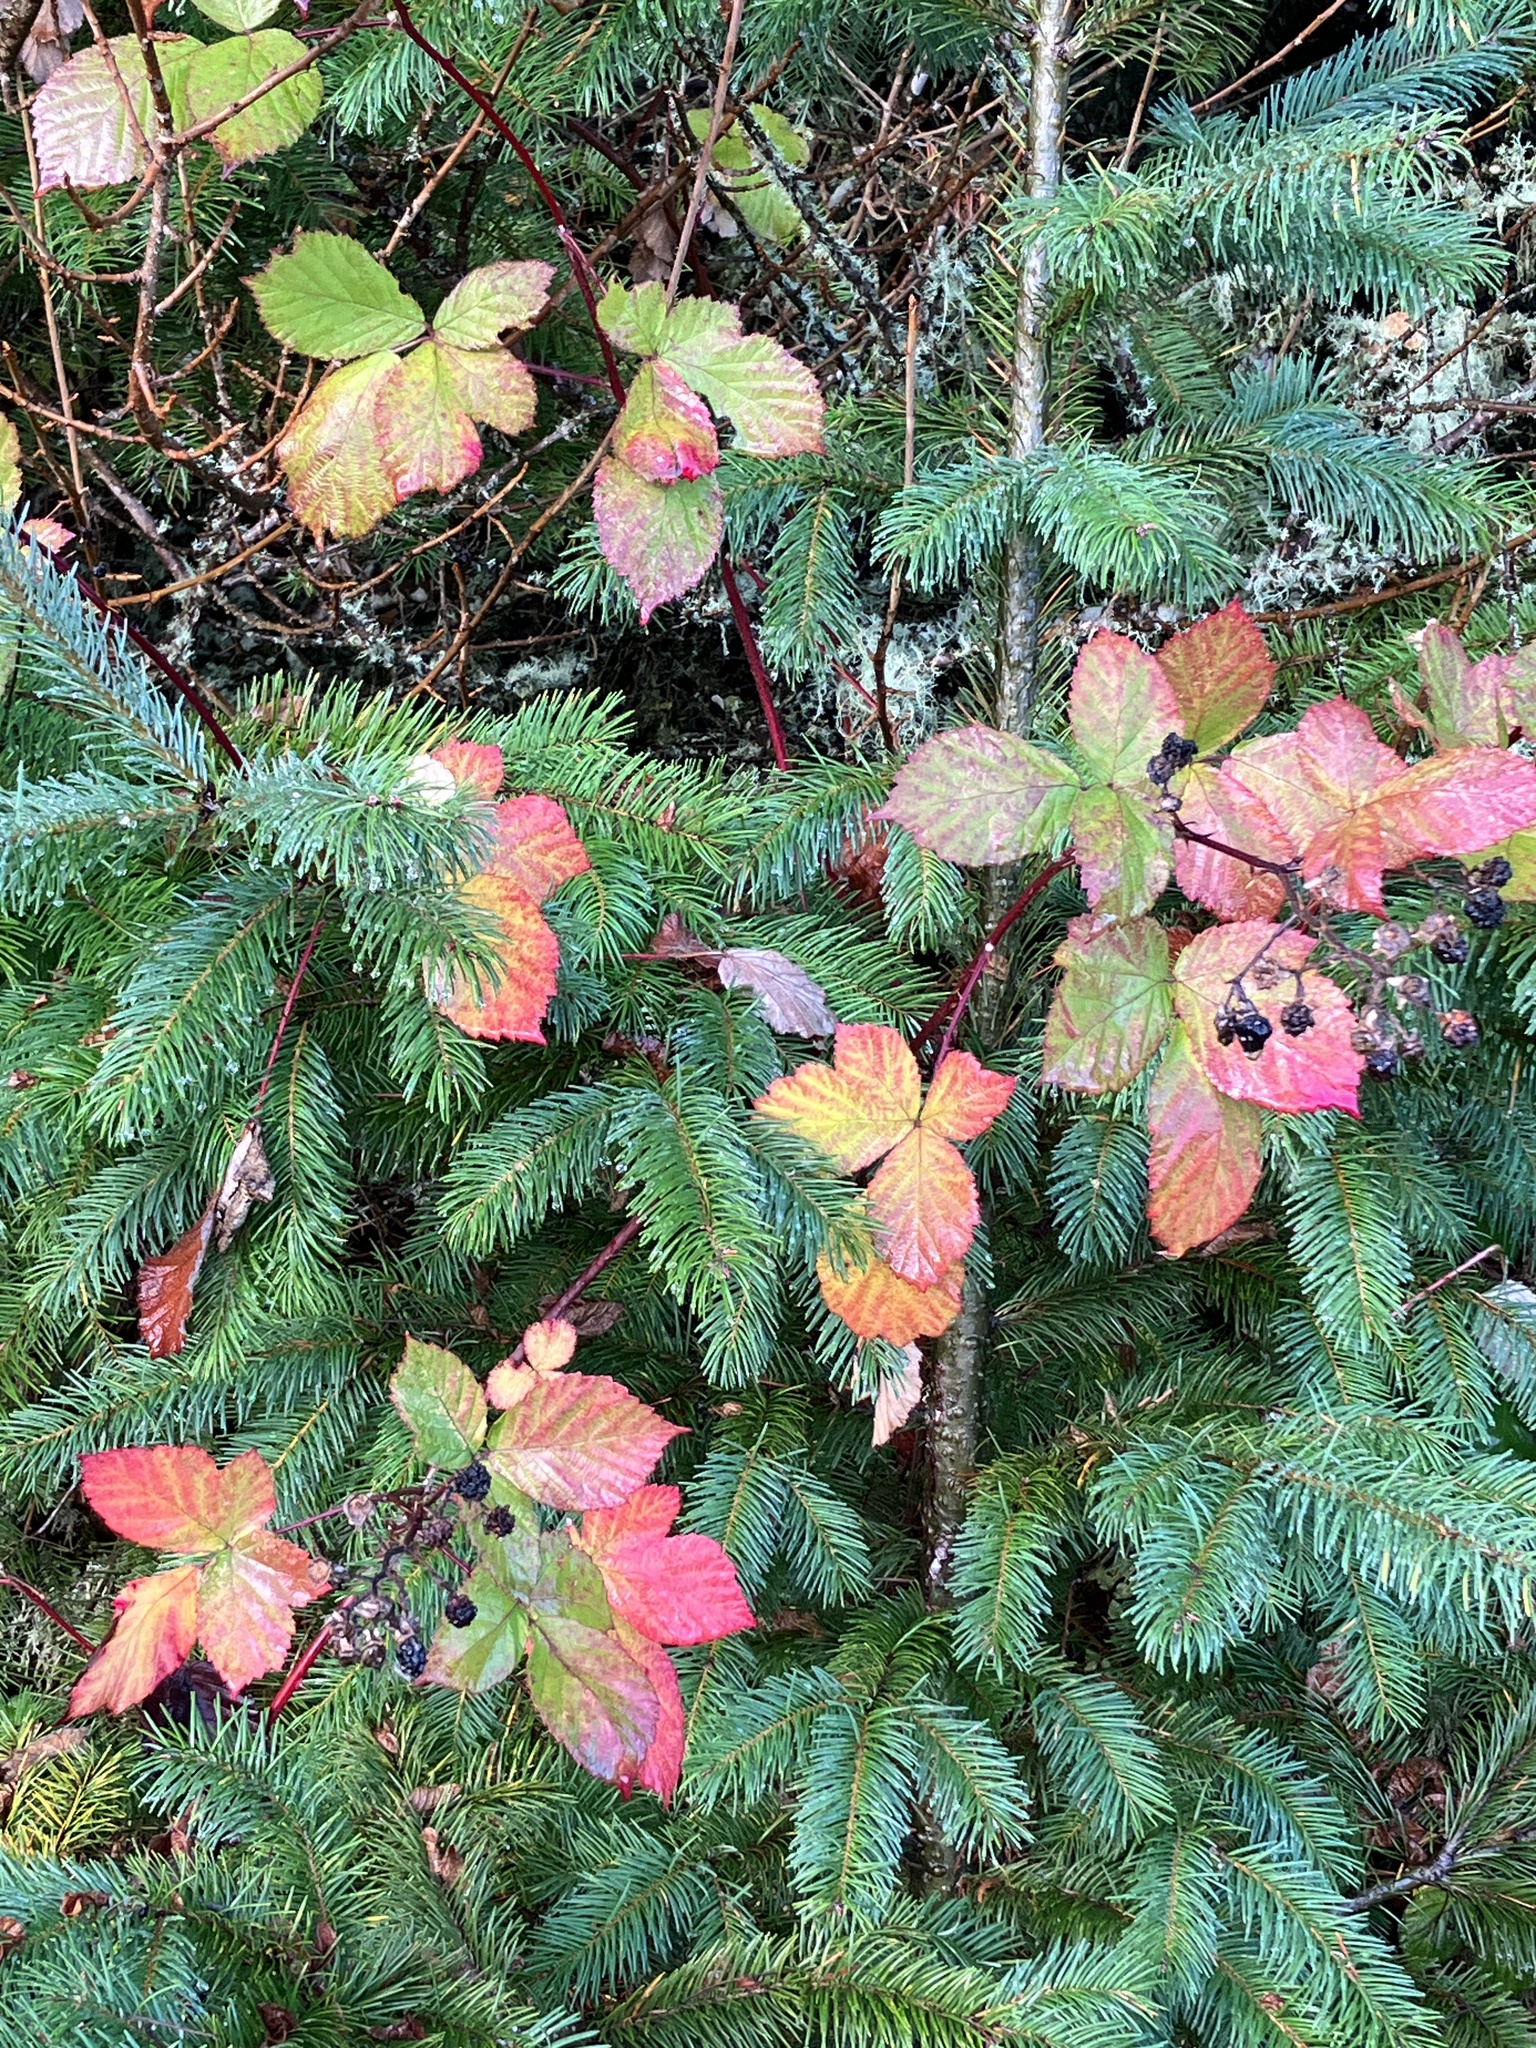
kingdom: Plantae
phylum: Tracheophyta
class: Magnoliopsida
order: Rosales
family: Rosaceae
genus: Rubus
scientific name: Rubus bifrons
